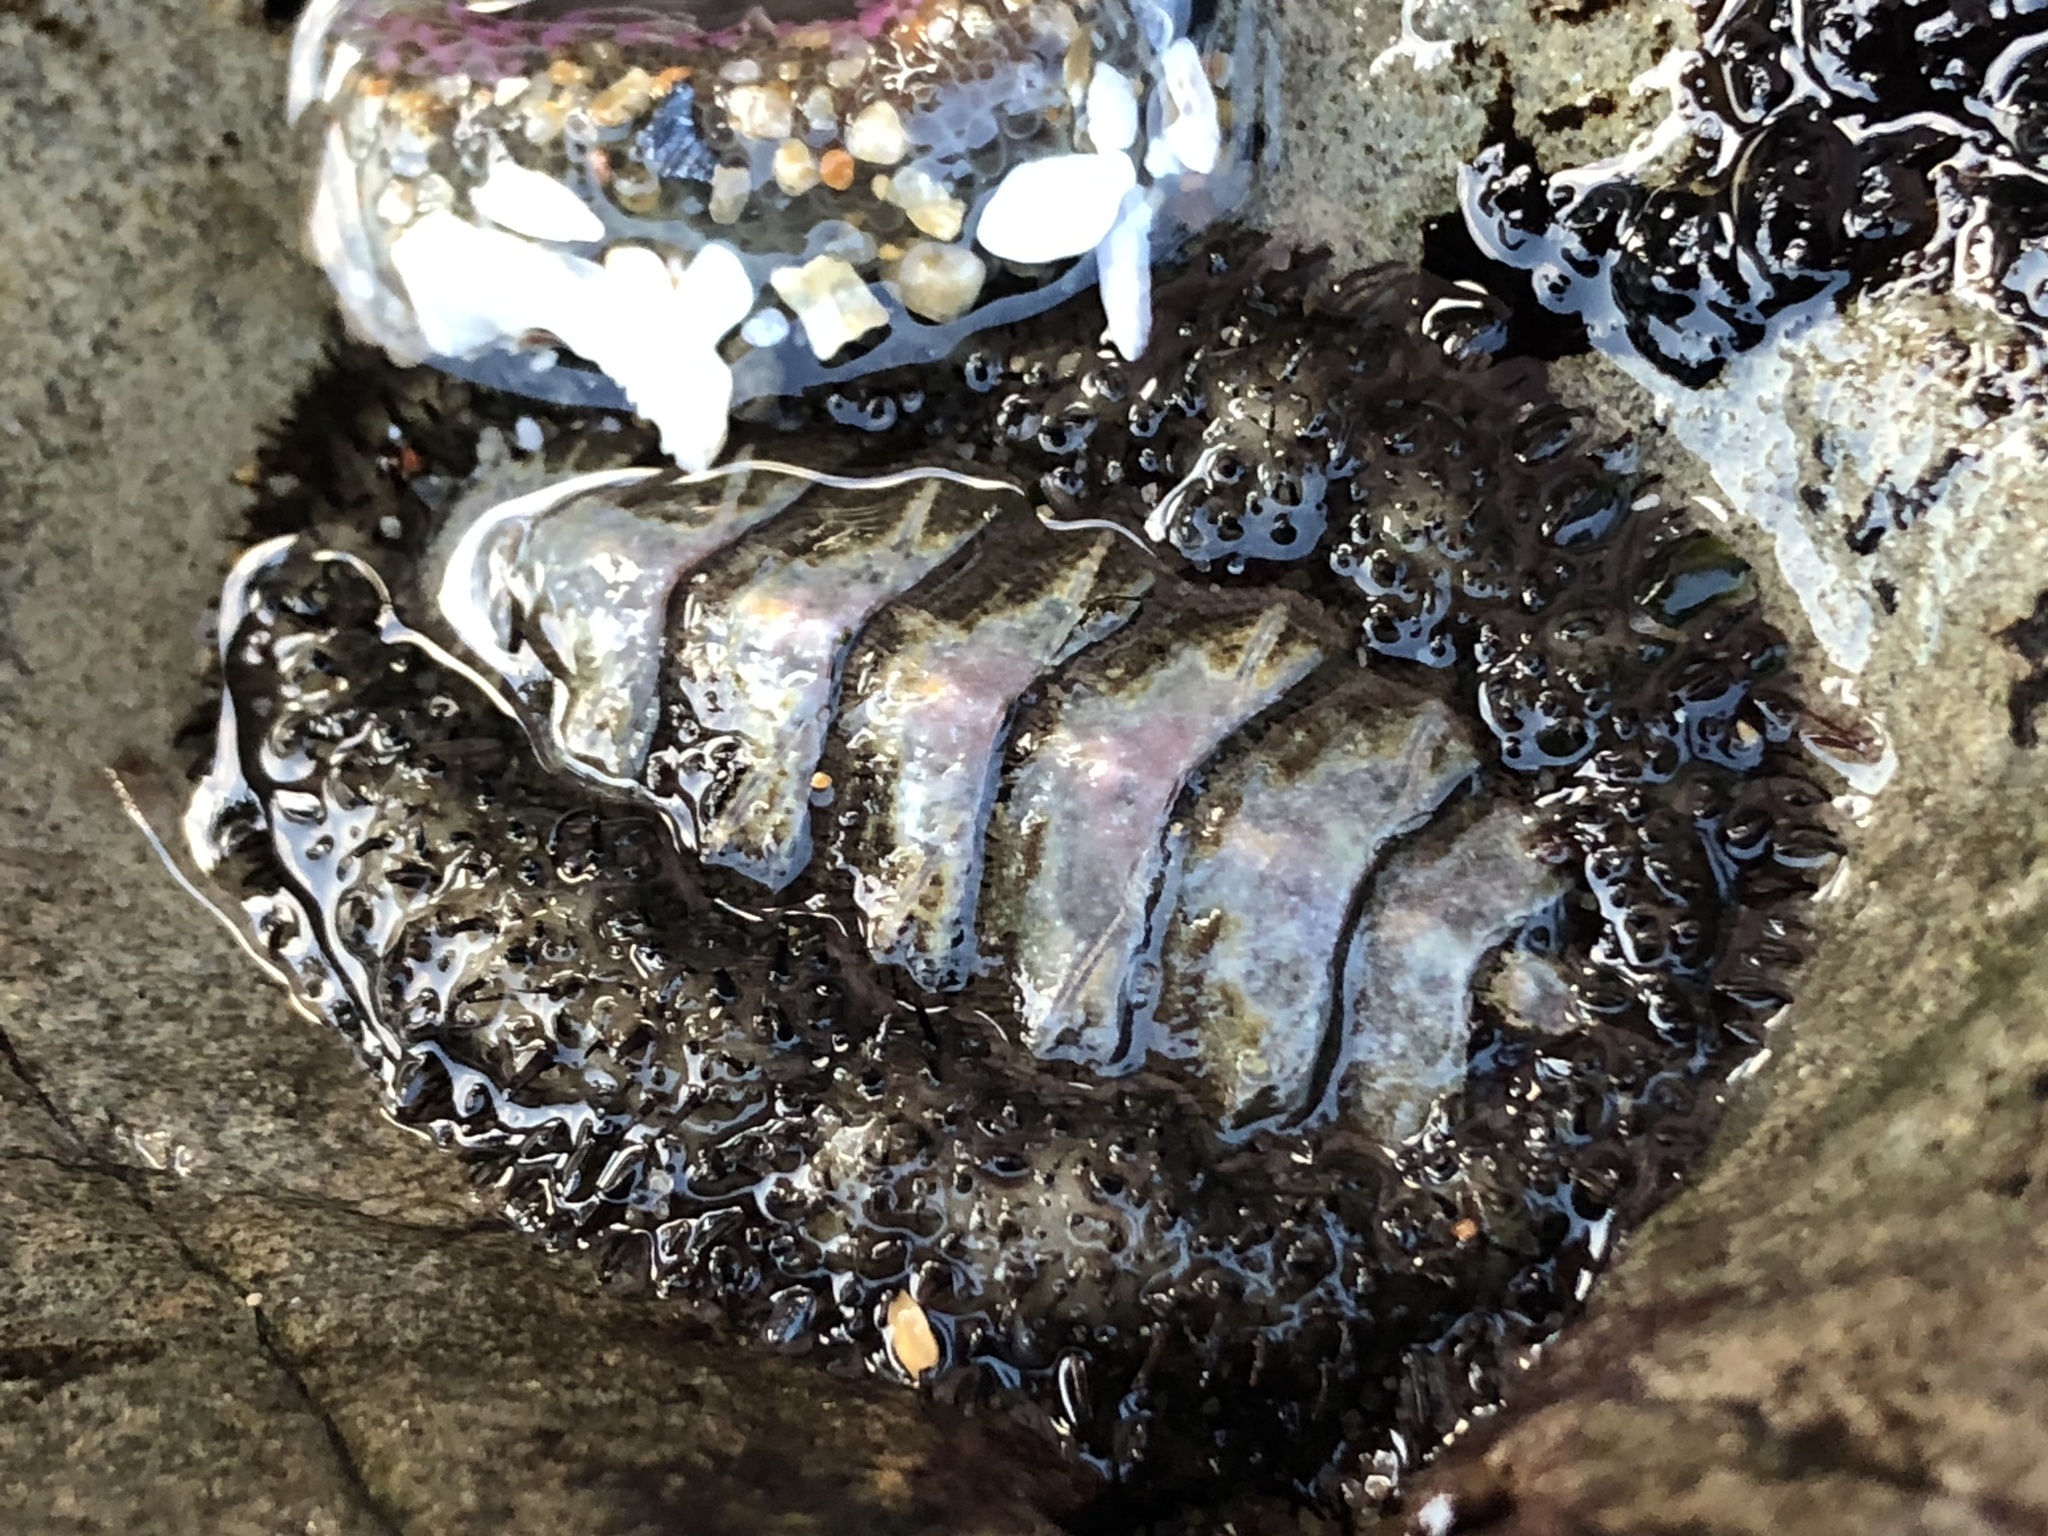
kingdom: Animalia
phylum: Mollusca
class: Polyplacophora
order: Chitonida
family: Mopaliidae
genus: Mopalia
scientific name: Mopalia muscosa
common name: Mossy chiton
